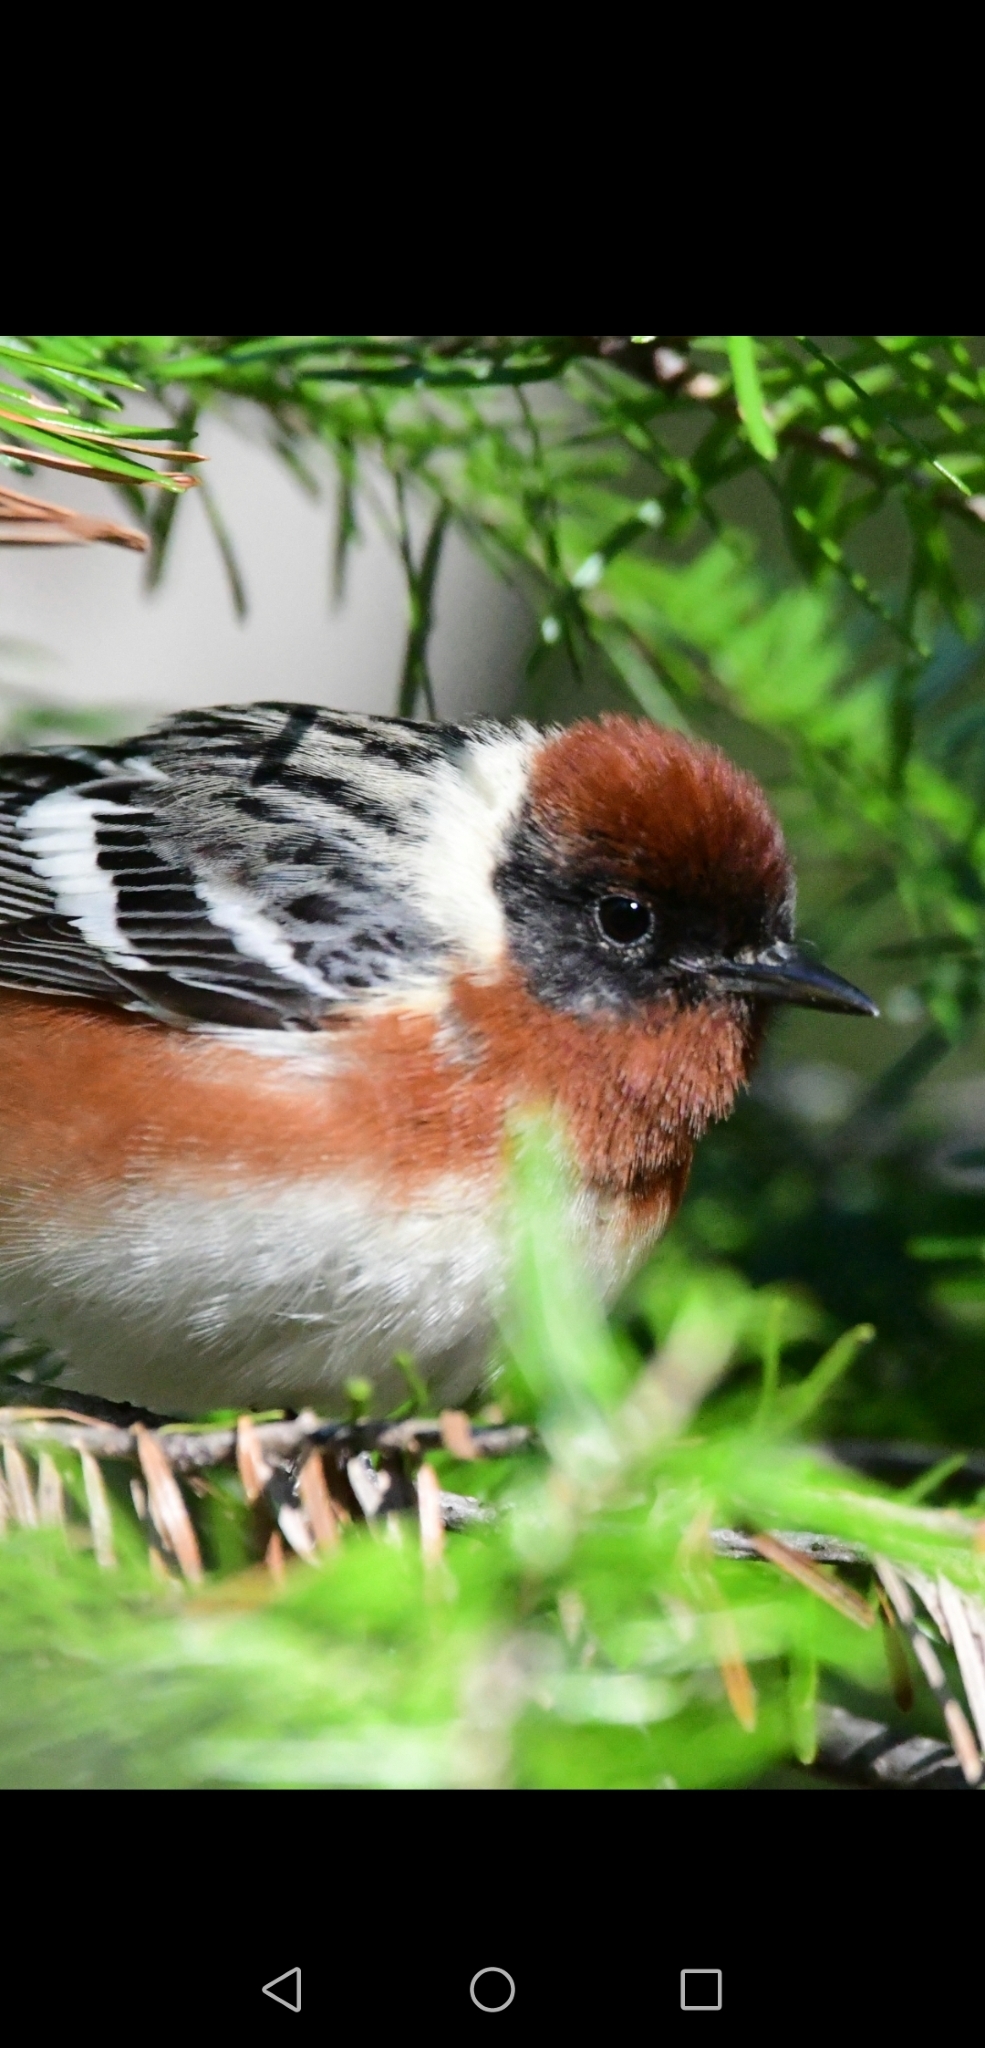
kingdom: Animalia
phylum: Chordata
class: Aves
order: Passeriformes
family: Parulidae
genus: Setophaga
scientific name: Setophaga castanea
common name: Bay-breasted warbler
